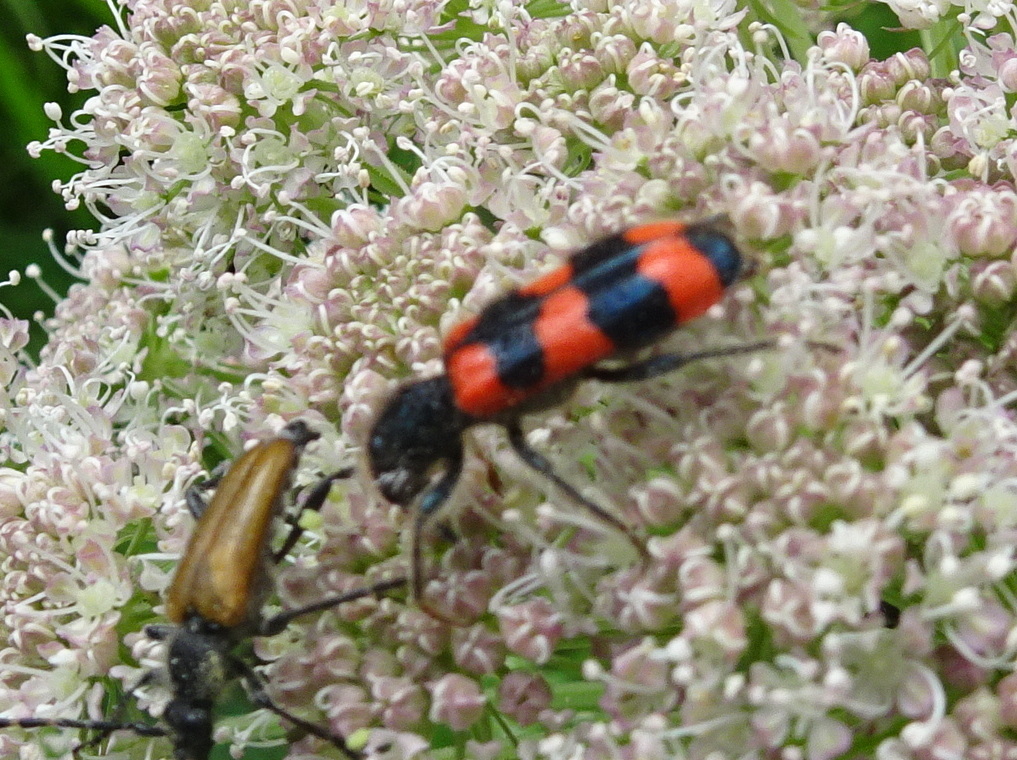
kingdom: Animalia
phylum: Arthropoda
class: Insecta
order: Coleoptera
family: Cleridae
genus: Trichodes
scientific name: Trichodes apiarius
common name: Bee-eating beetle
